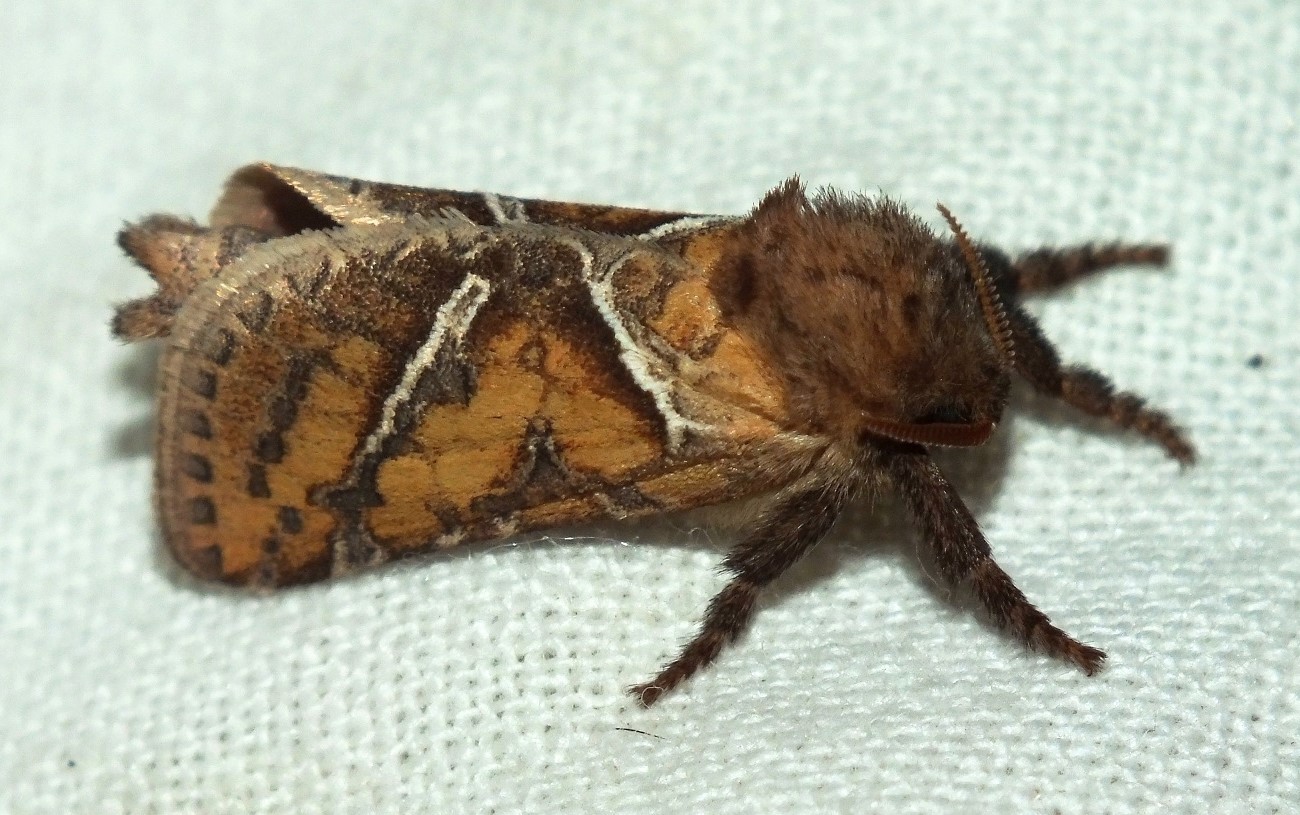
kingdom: Animalia
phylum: Arthropoda
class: Insecta
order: Lepidoptera
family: Hepialidae
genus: Triodia
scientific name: Triodia sylvina
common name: Orange swift
